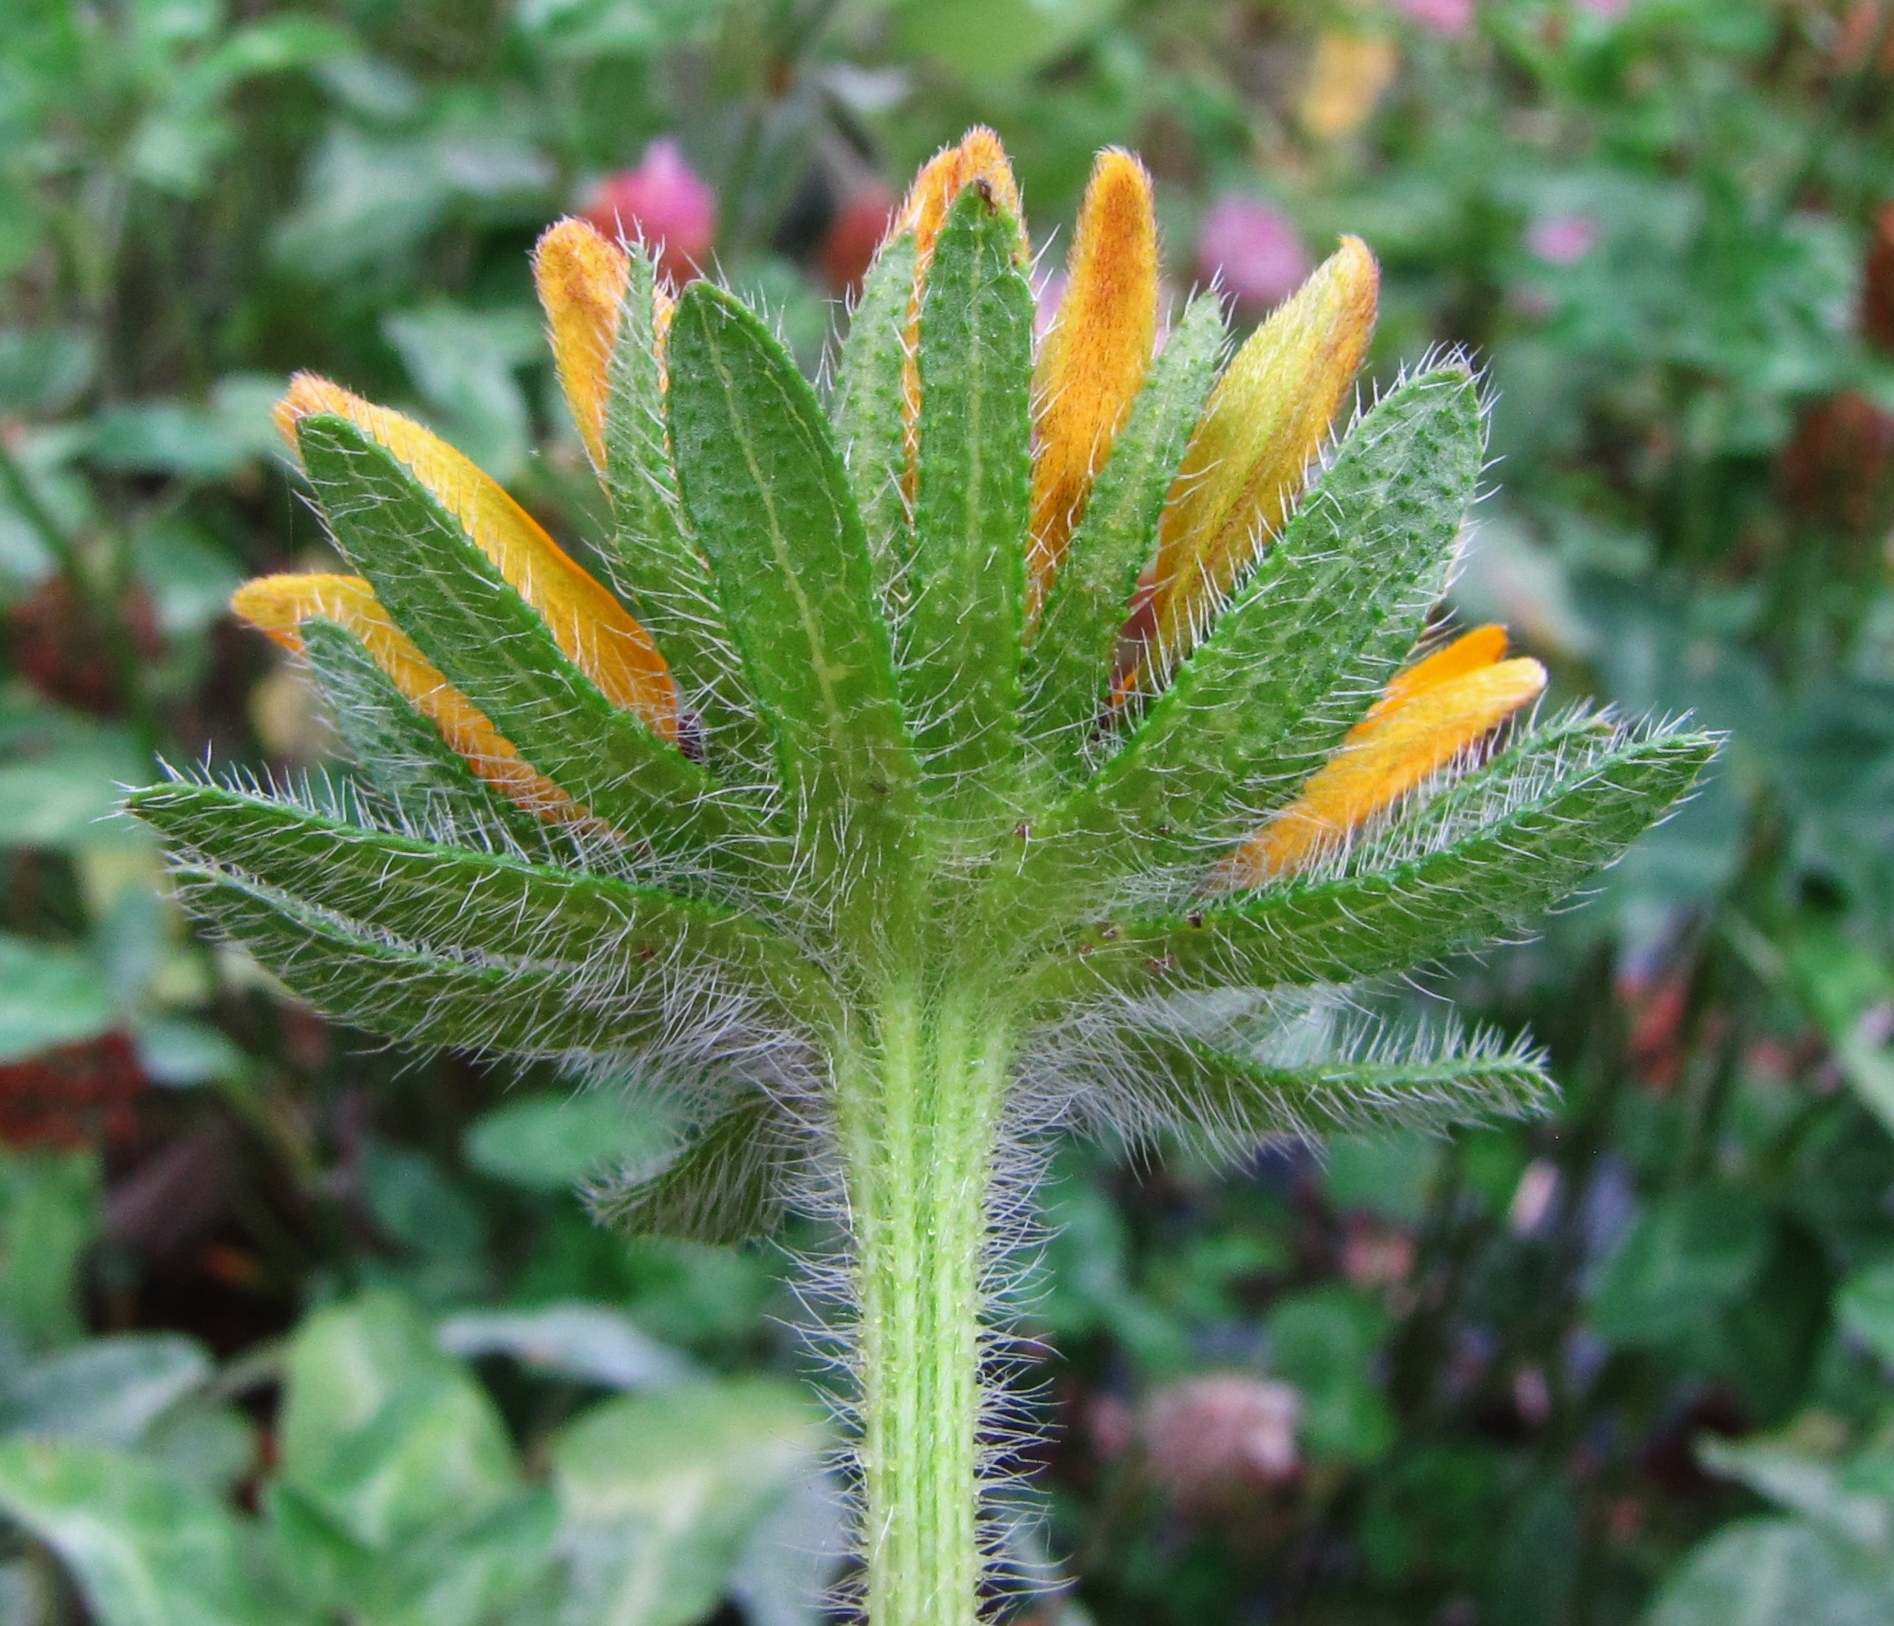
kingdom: Plantae
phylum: Tracheophyta
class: Magnoliopsida
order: Asterales
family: Asteraceae
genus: Rudbeckia
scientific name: Rudbeckia hirta
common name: Black-eyed-susan
